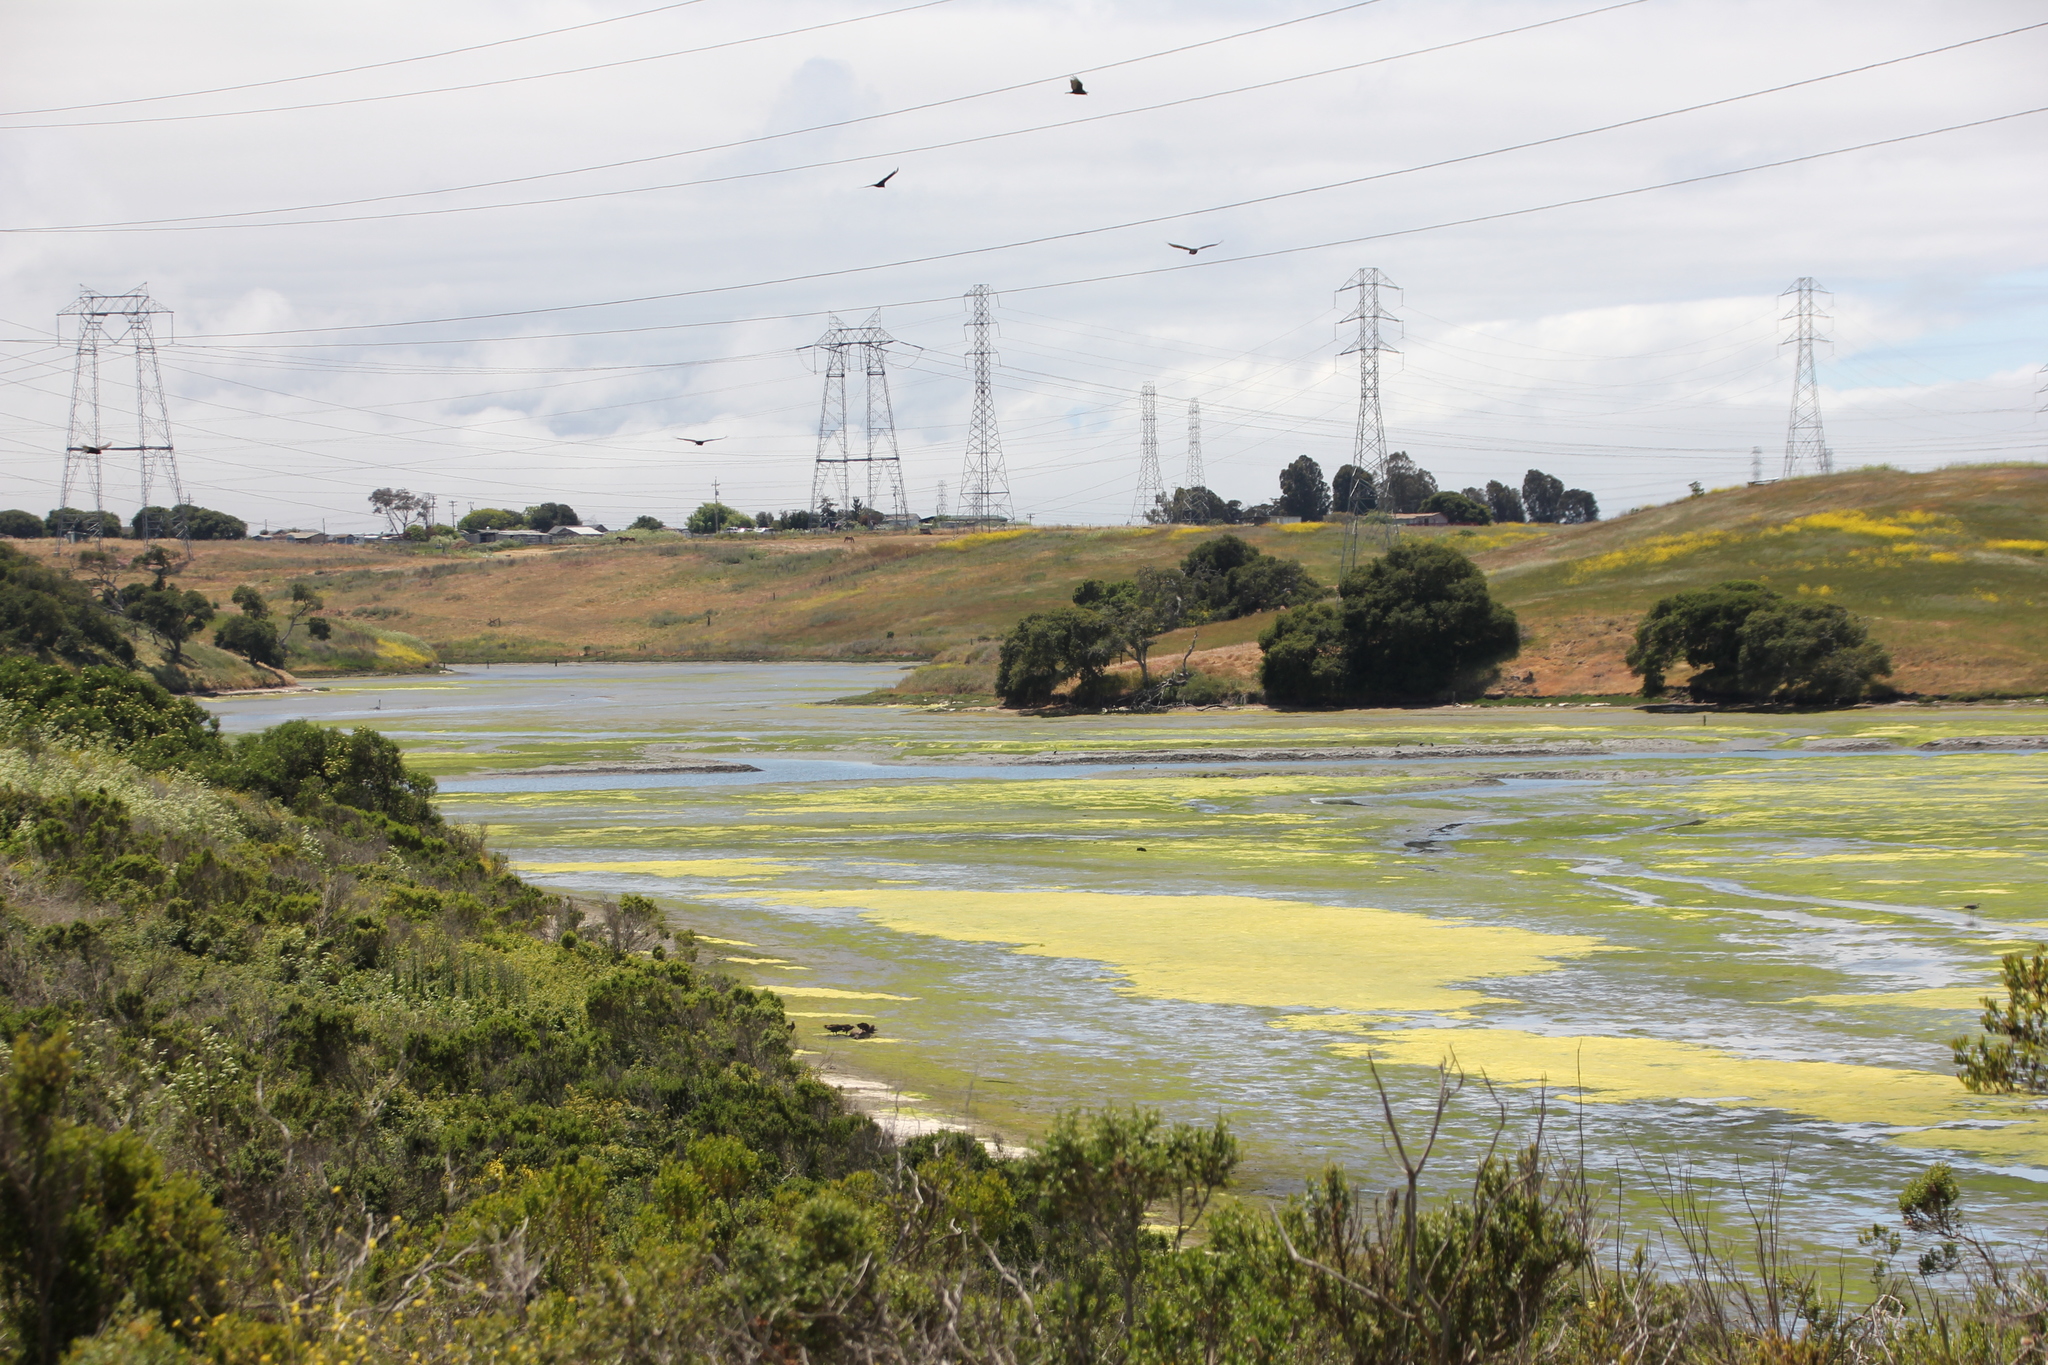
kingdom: Animalia
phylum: Chordata
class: Aves
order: Accipitriformes
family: Cathartidae
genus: Cathartes
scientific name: Cathartes aura
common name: Turkey vulture
